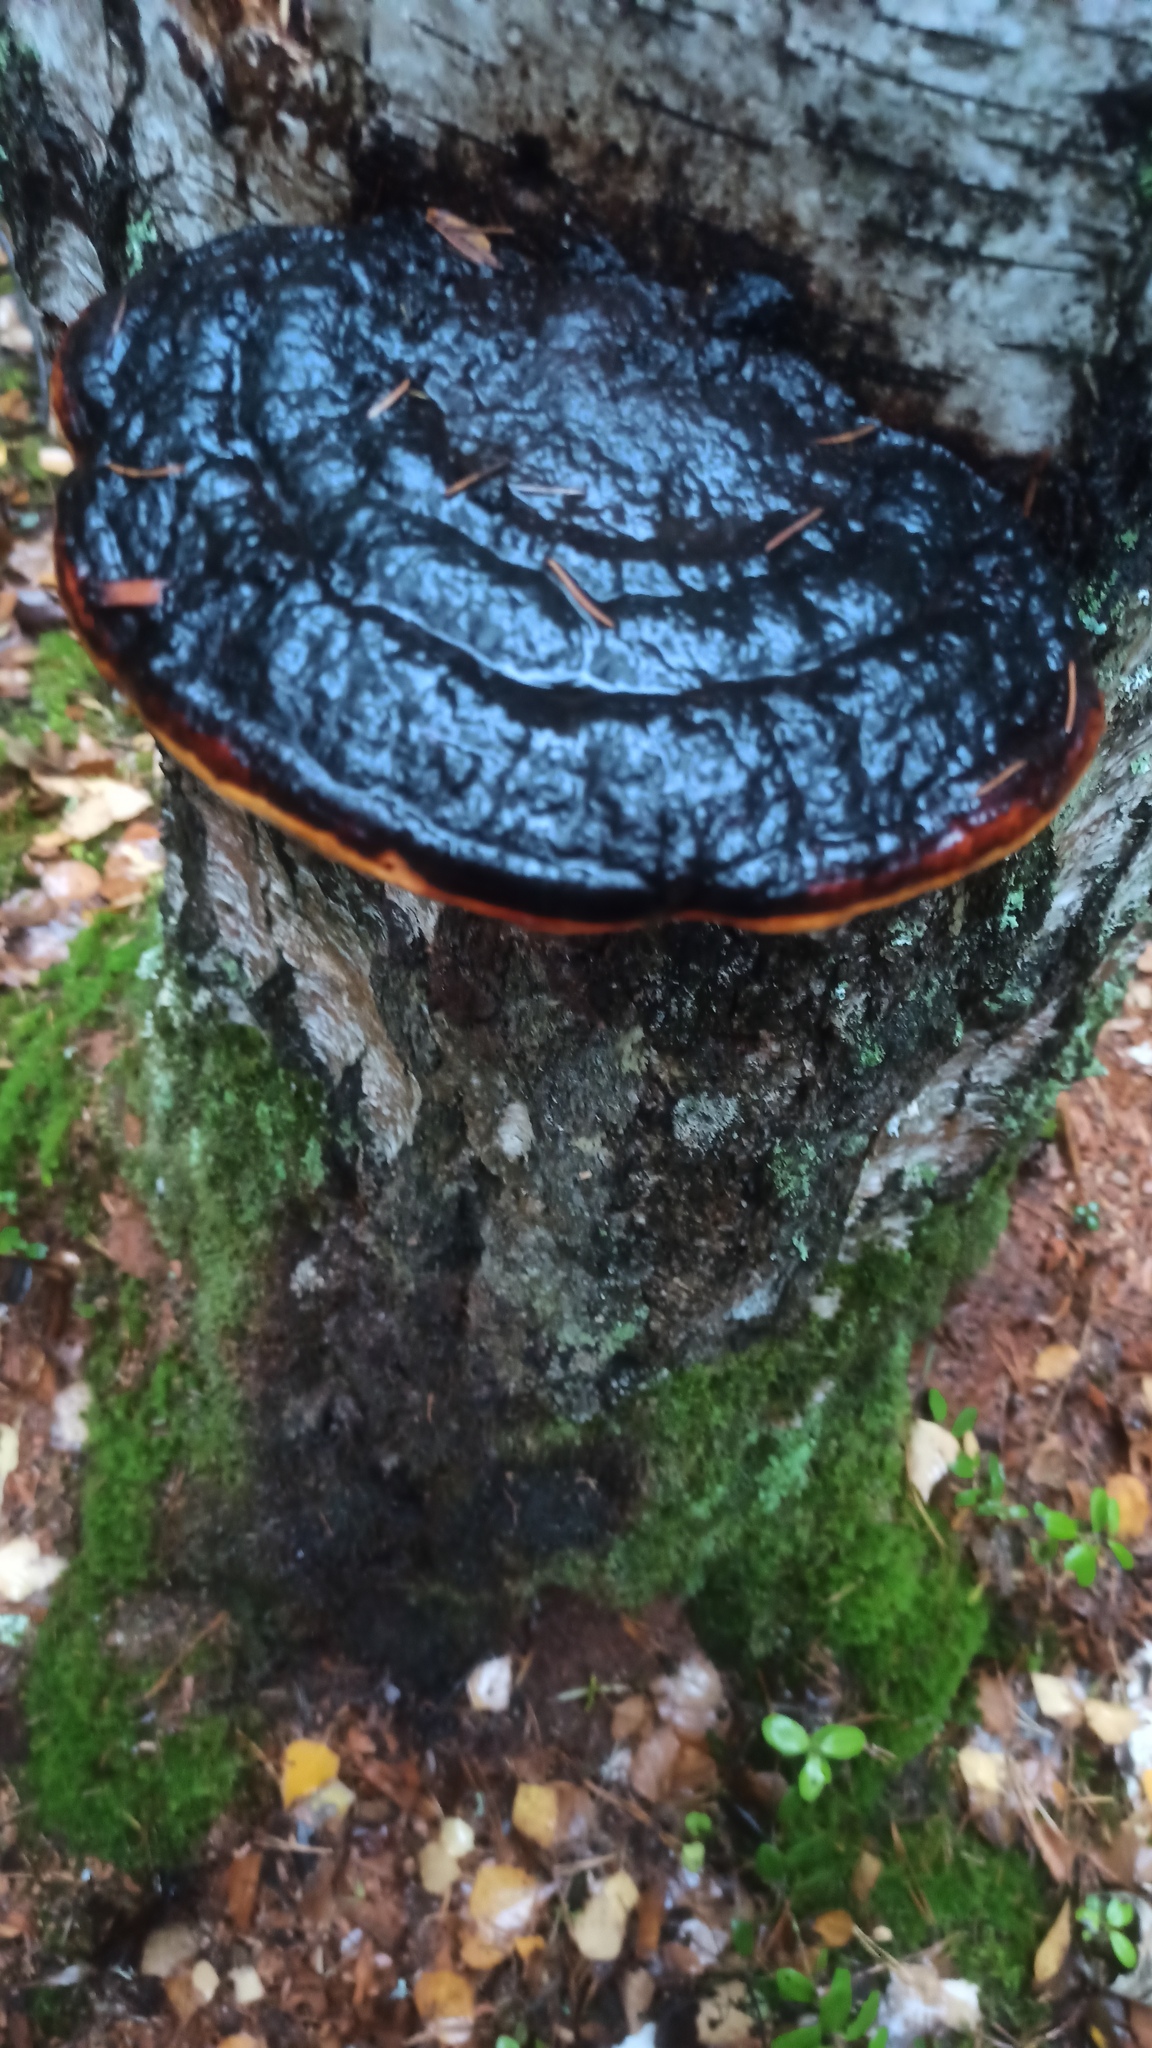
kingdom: Fungi
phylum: Basidiomycota
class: Agaricomycetes
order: Polyporales
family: Fomitopsidaceae
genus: Fomitopsis
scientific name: Fomitopsis pinicola
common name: Red-belted bracket
